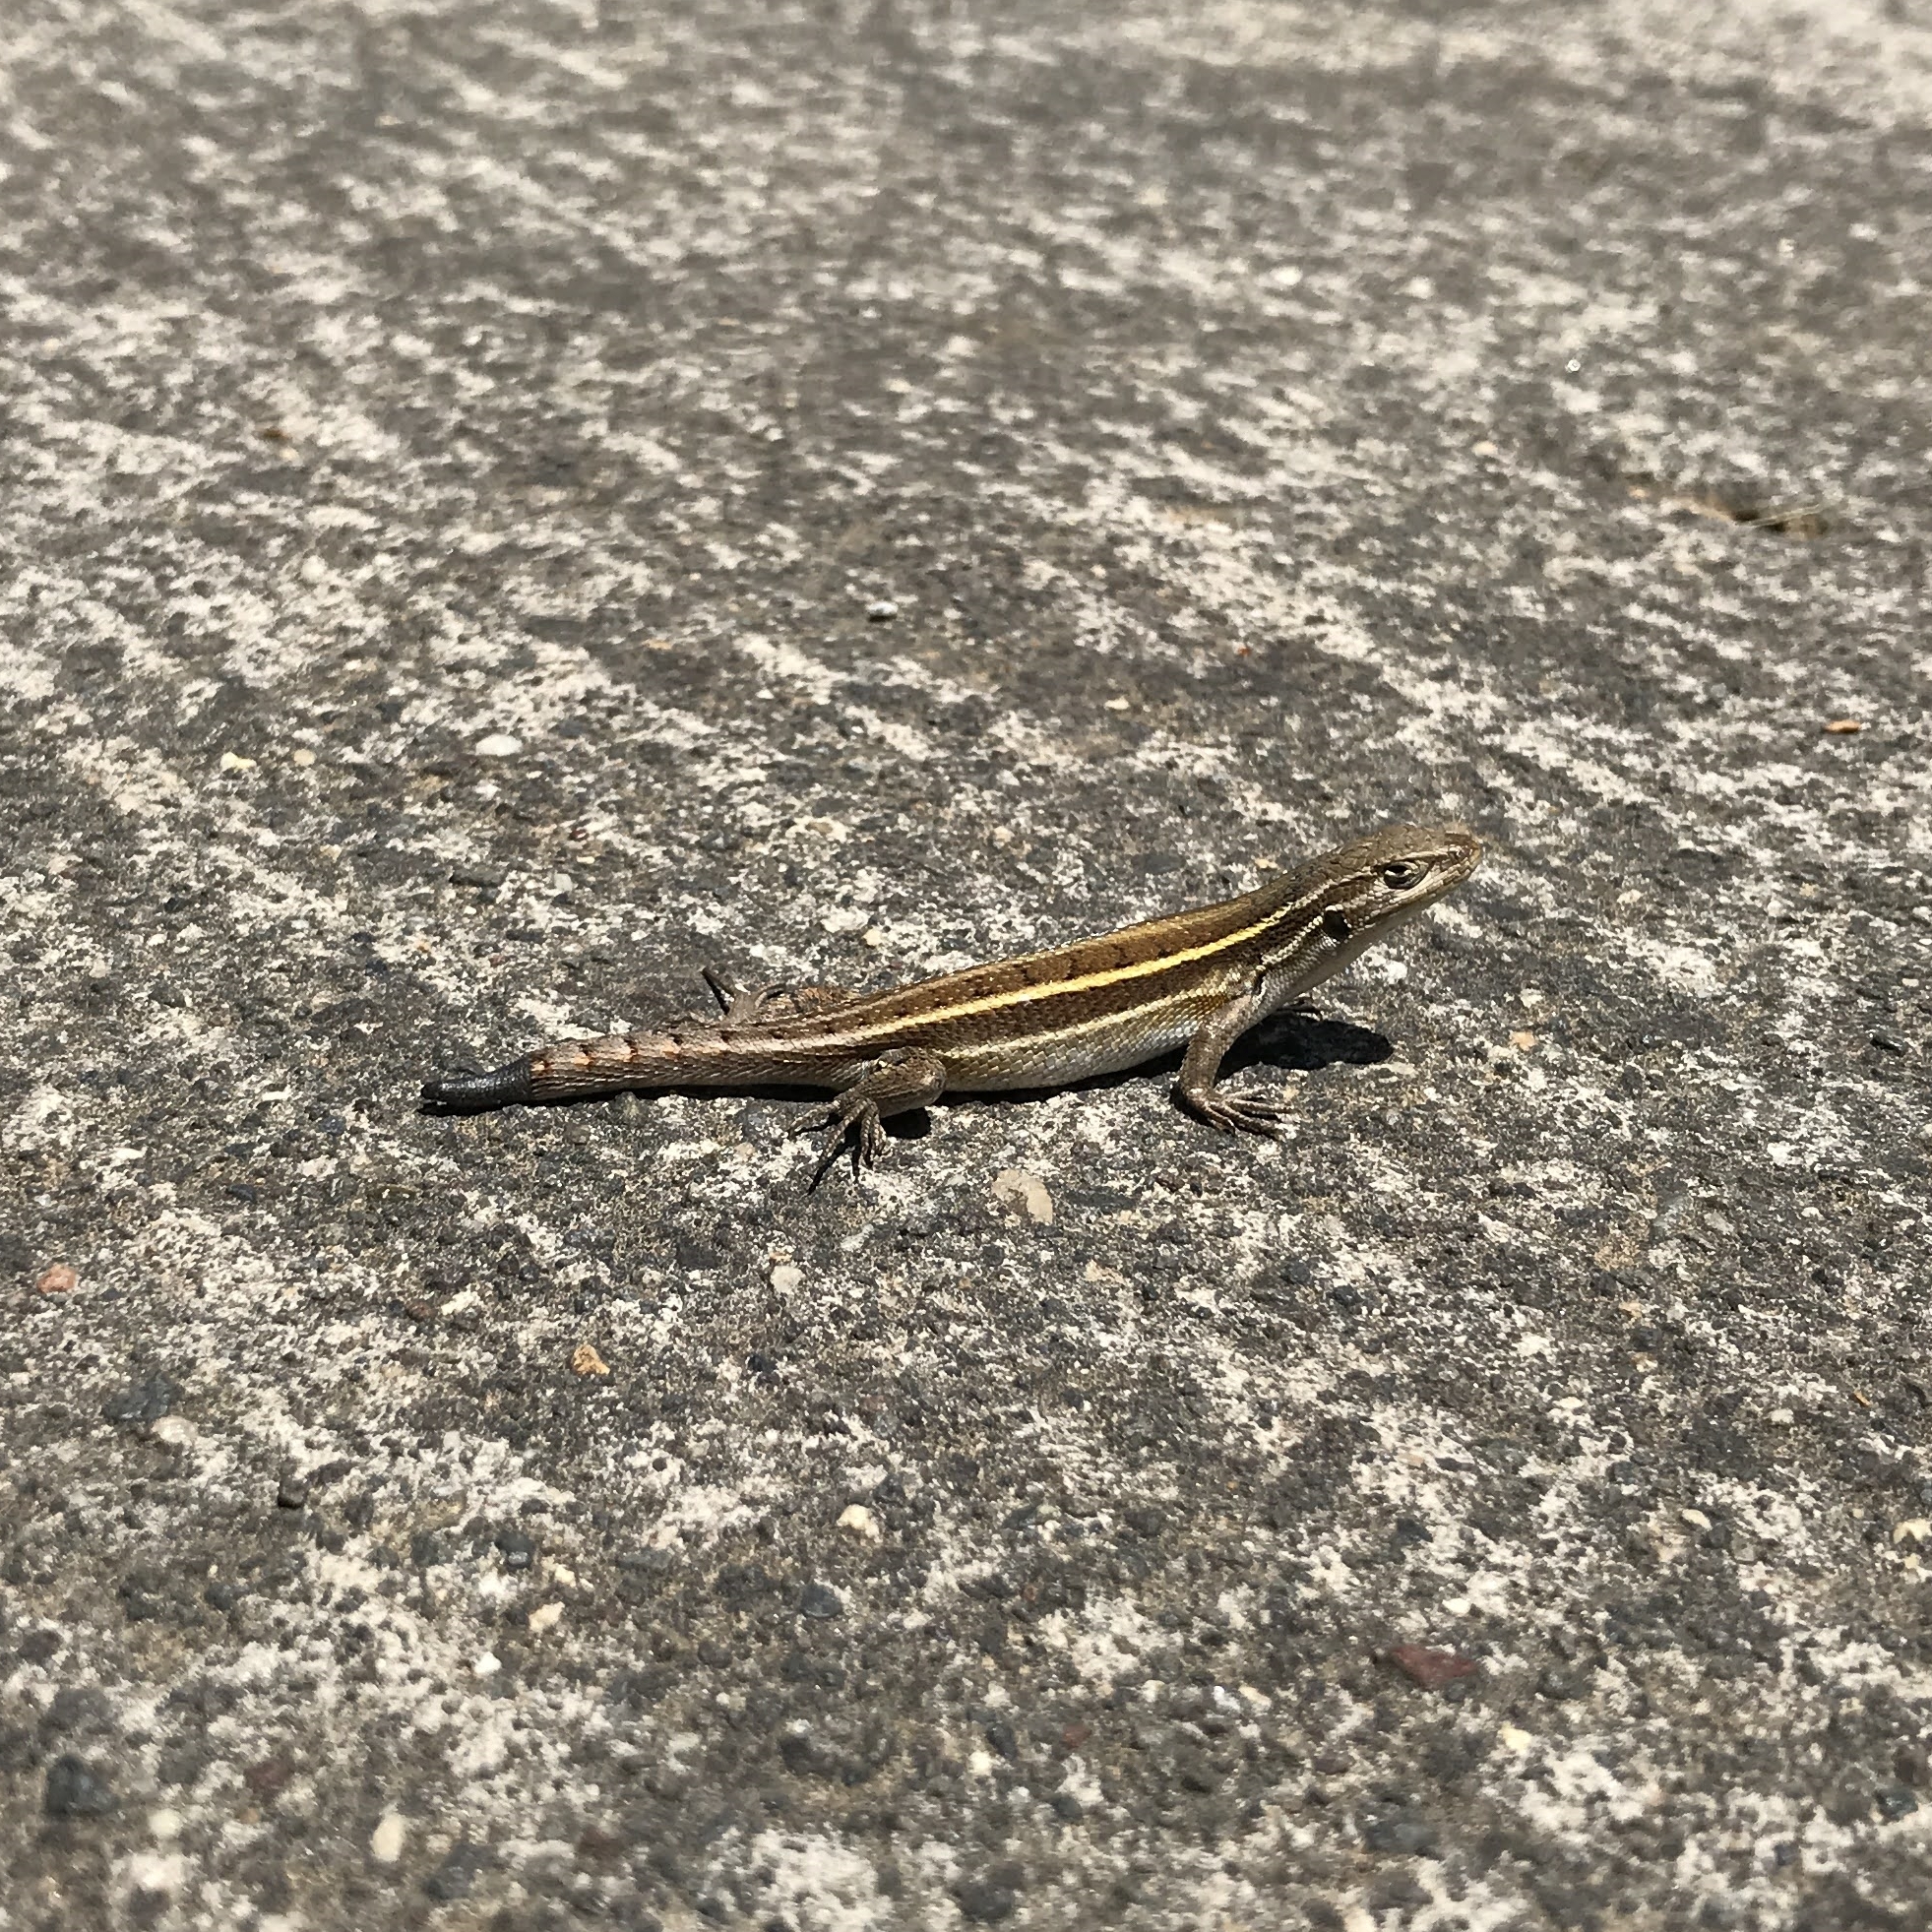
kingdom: Animalia
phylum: Chordata
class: Squamata
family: Liolaemidae
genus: Liolaemus
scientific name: Liolaemus lemniscatus
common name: Wreath tree iguana
